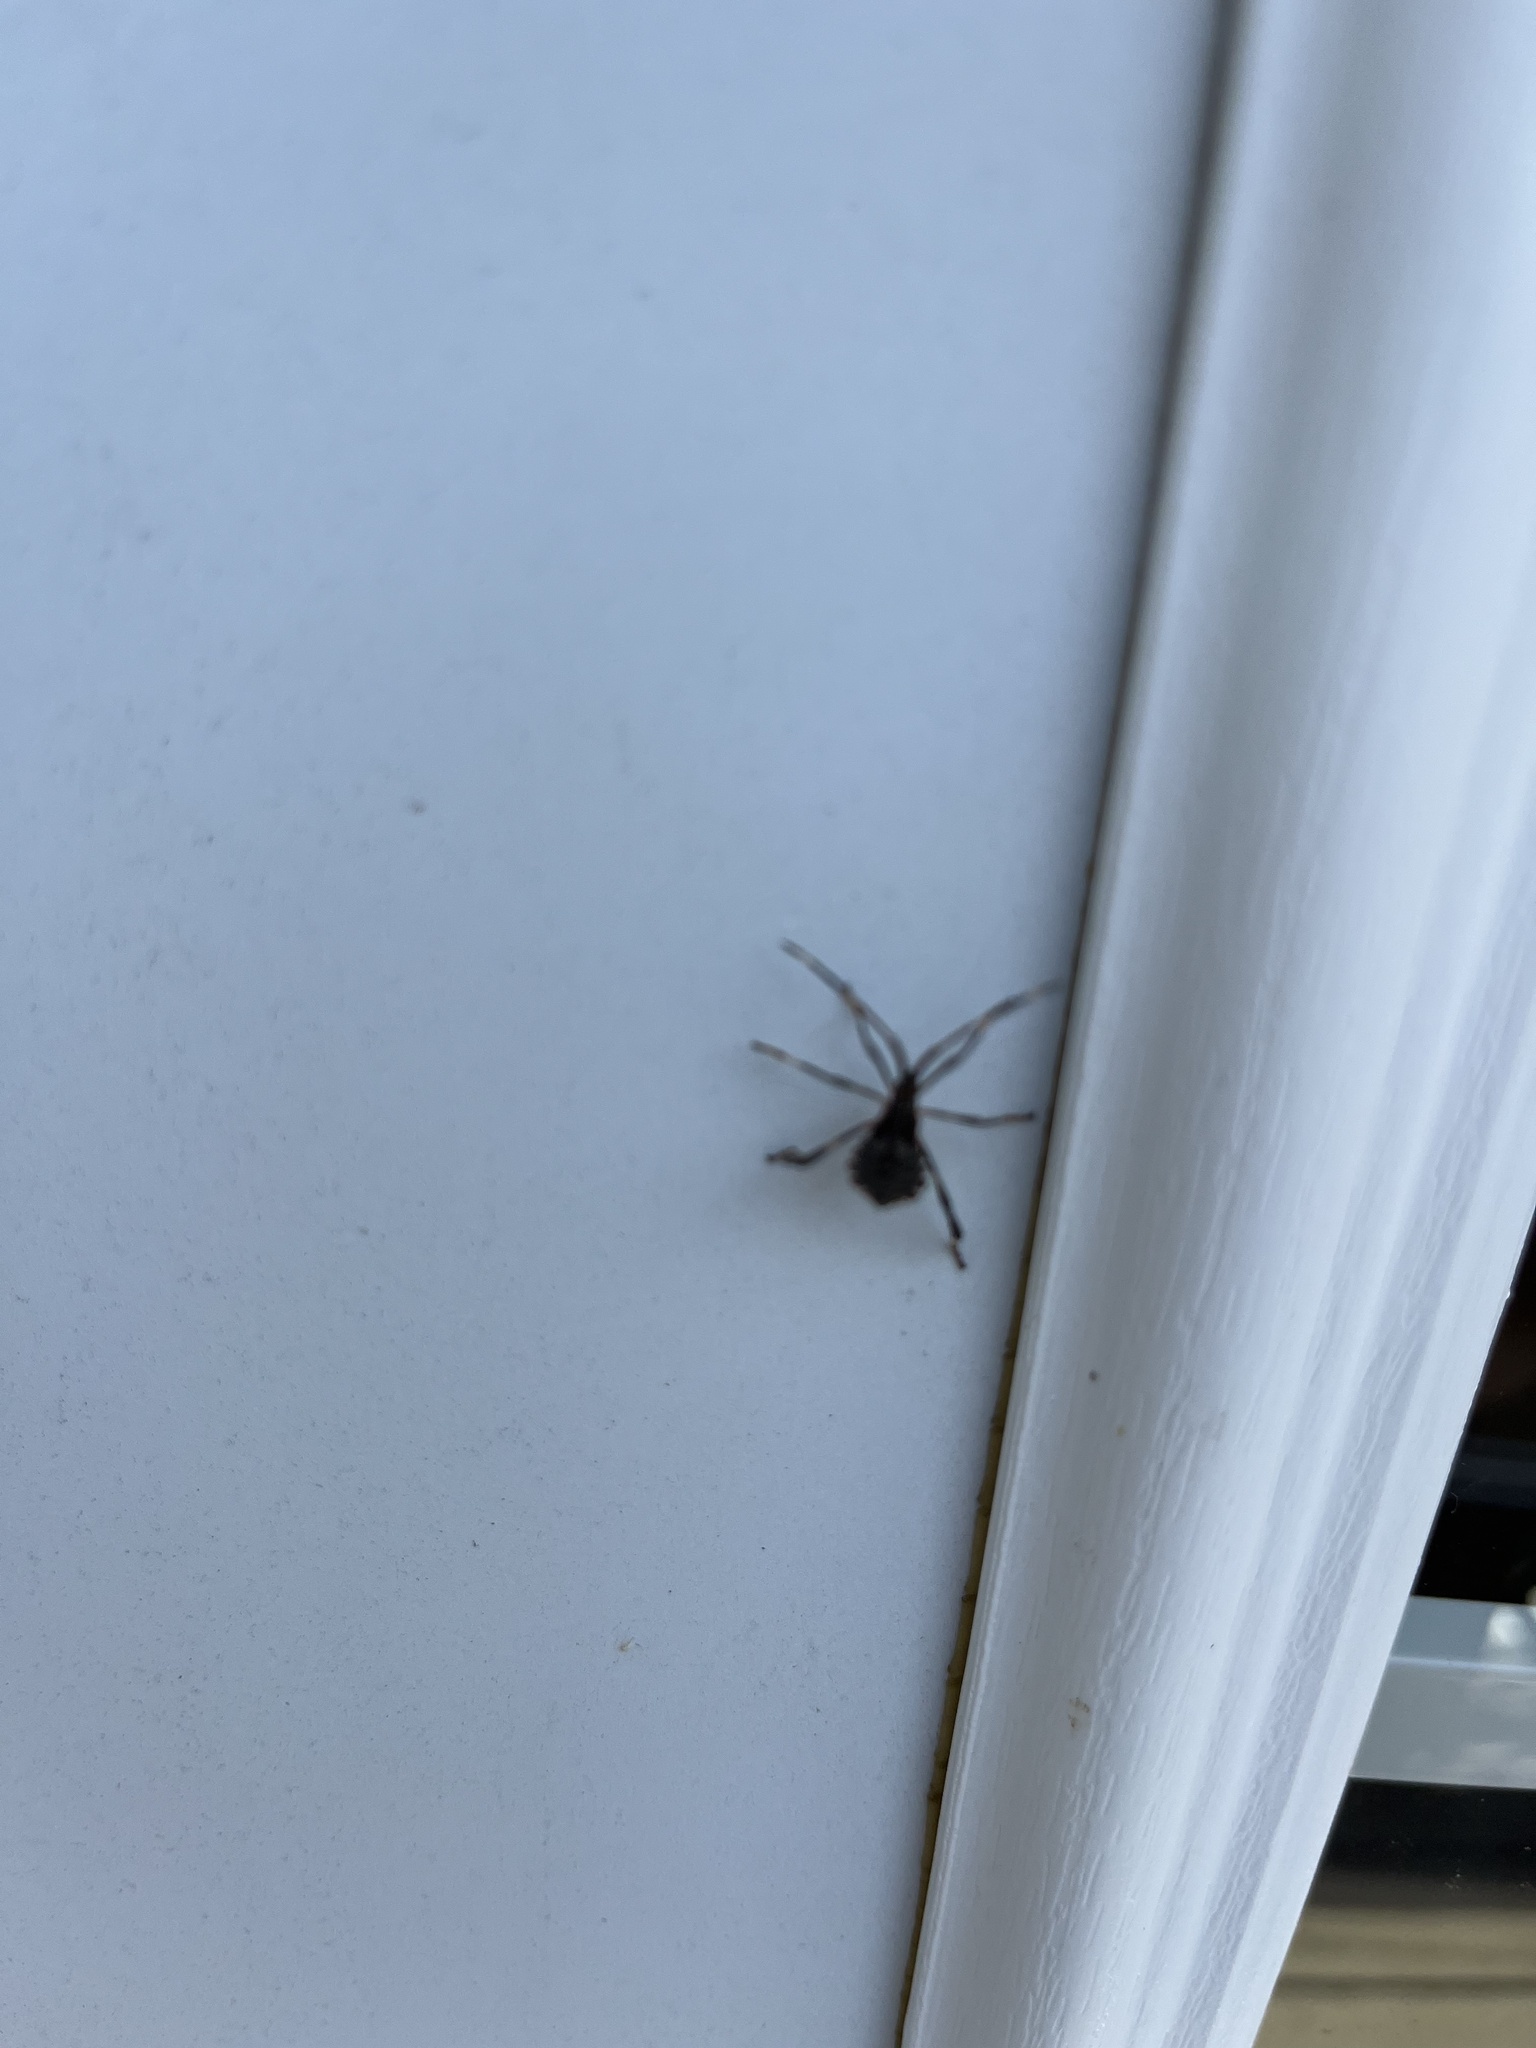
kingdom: Animalia
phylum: Arthropoda
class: Insecta
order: Hemiptera
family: Coreidae
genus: Acanthocephala
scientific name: Acanthocephala terminalis
